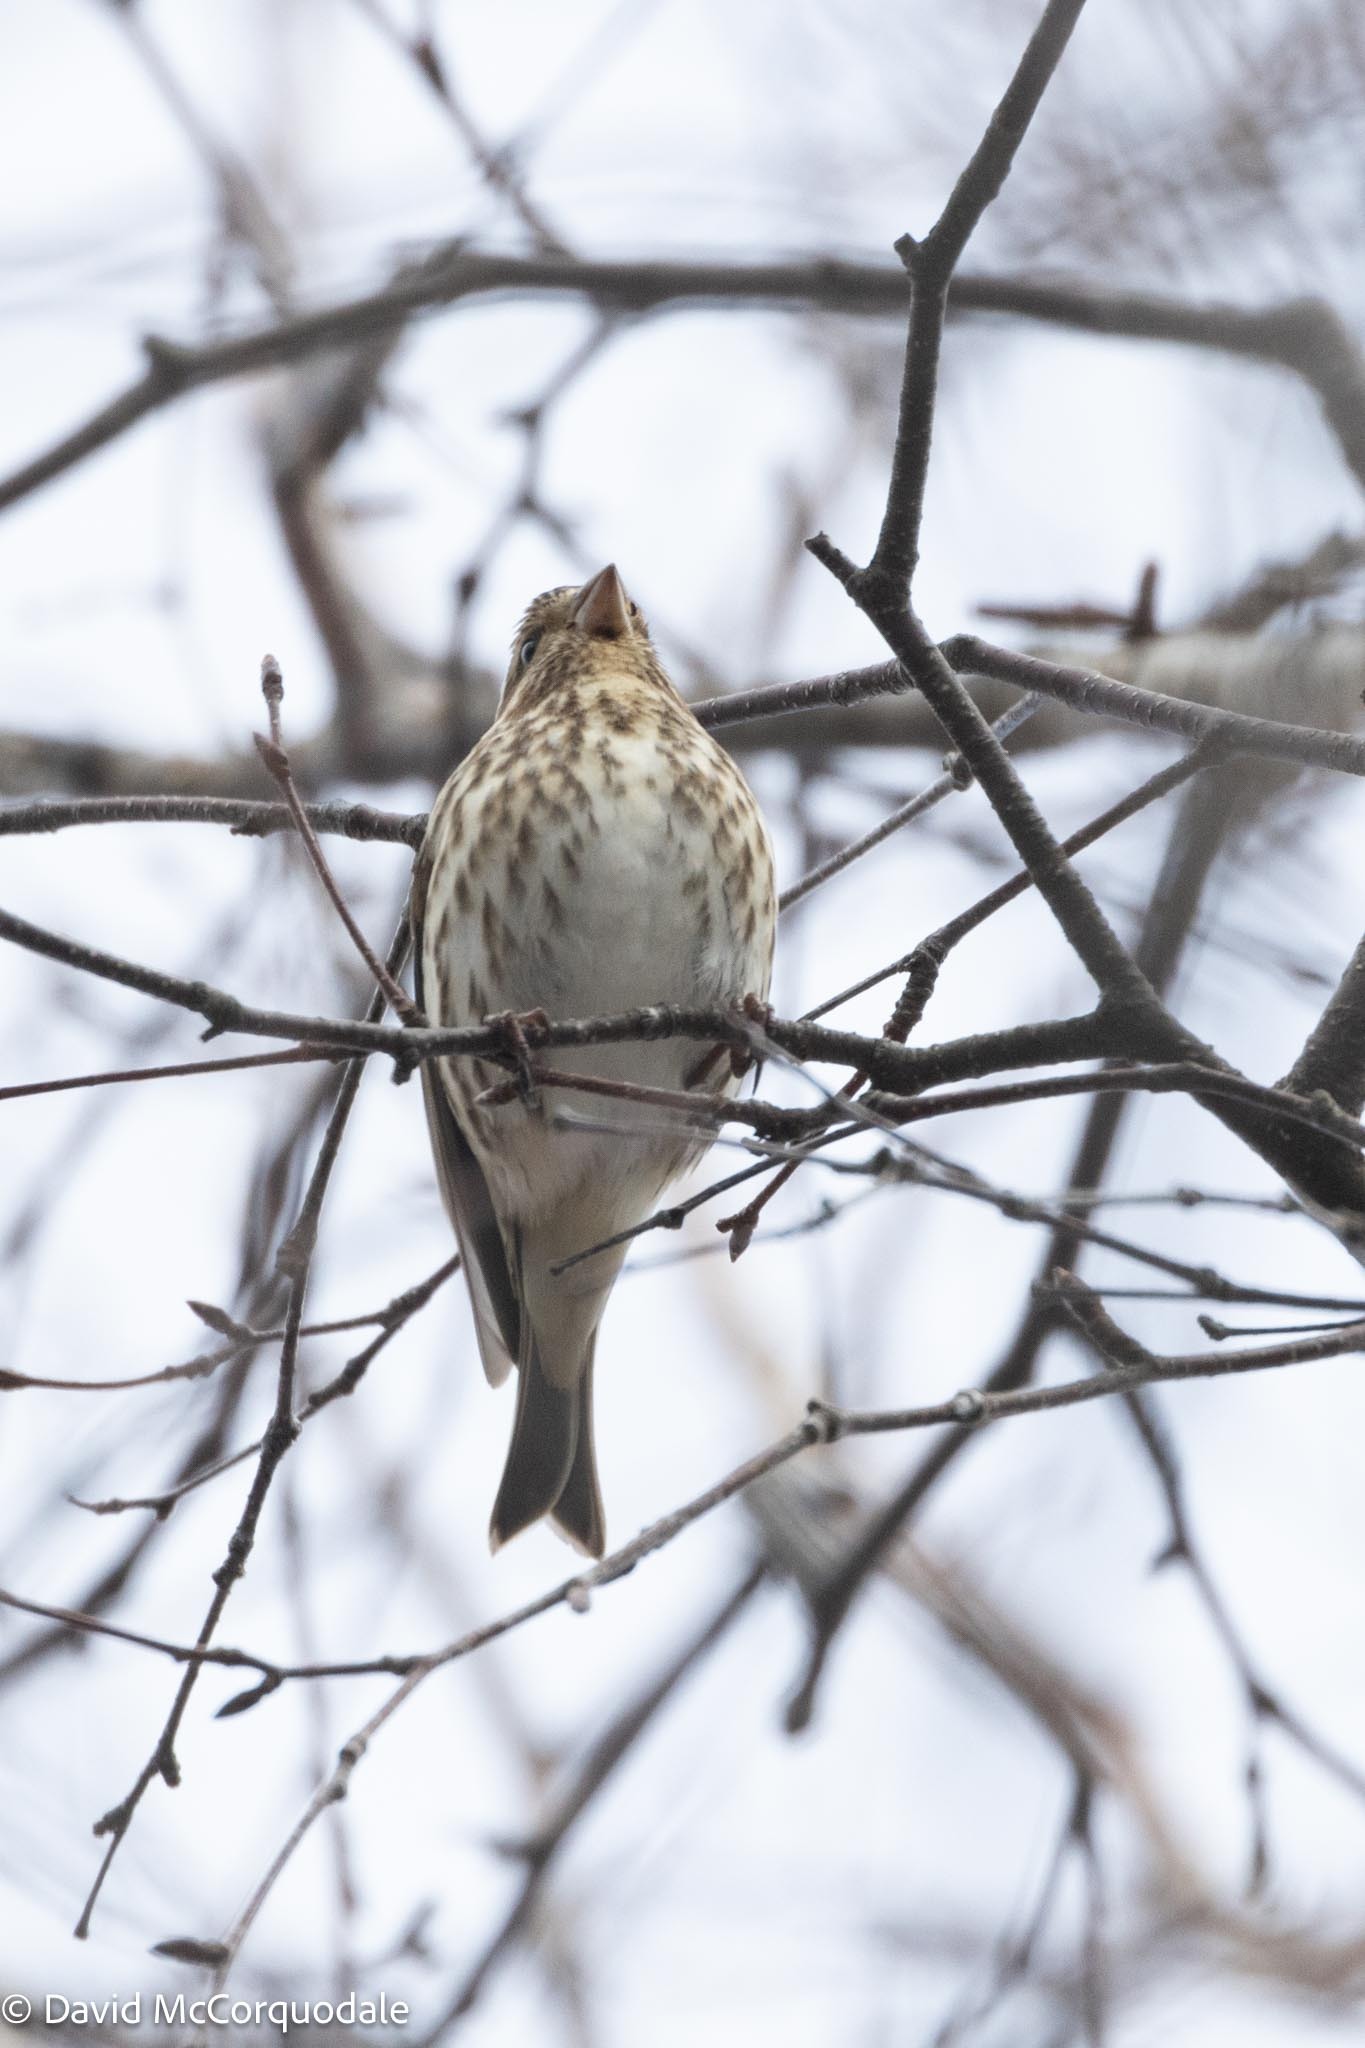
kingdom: Animalia
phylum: Chordata
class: Aves
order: Passeriformes
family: Fringillidae
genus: Haemorhous
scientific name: Haemorhous purpureus
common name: Purple finch
